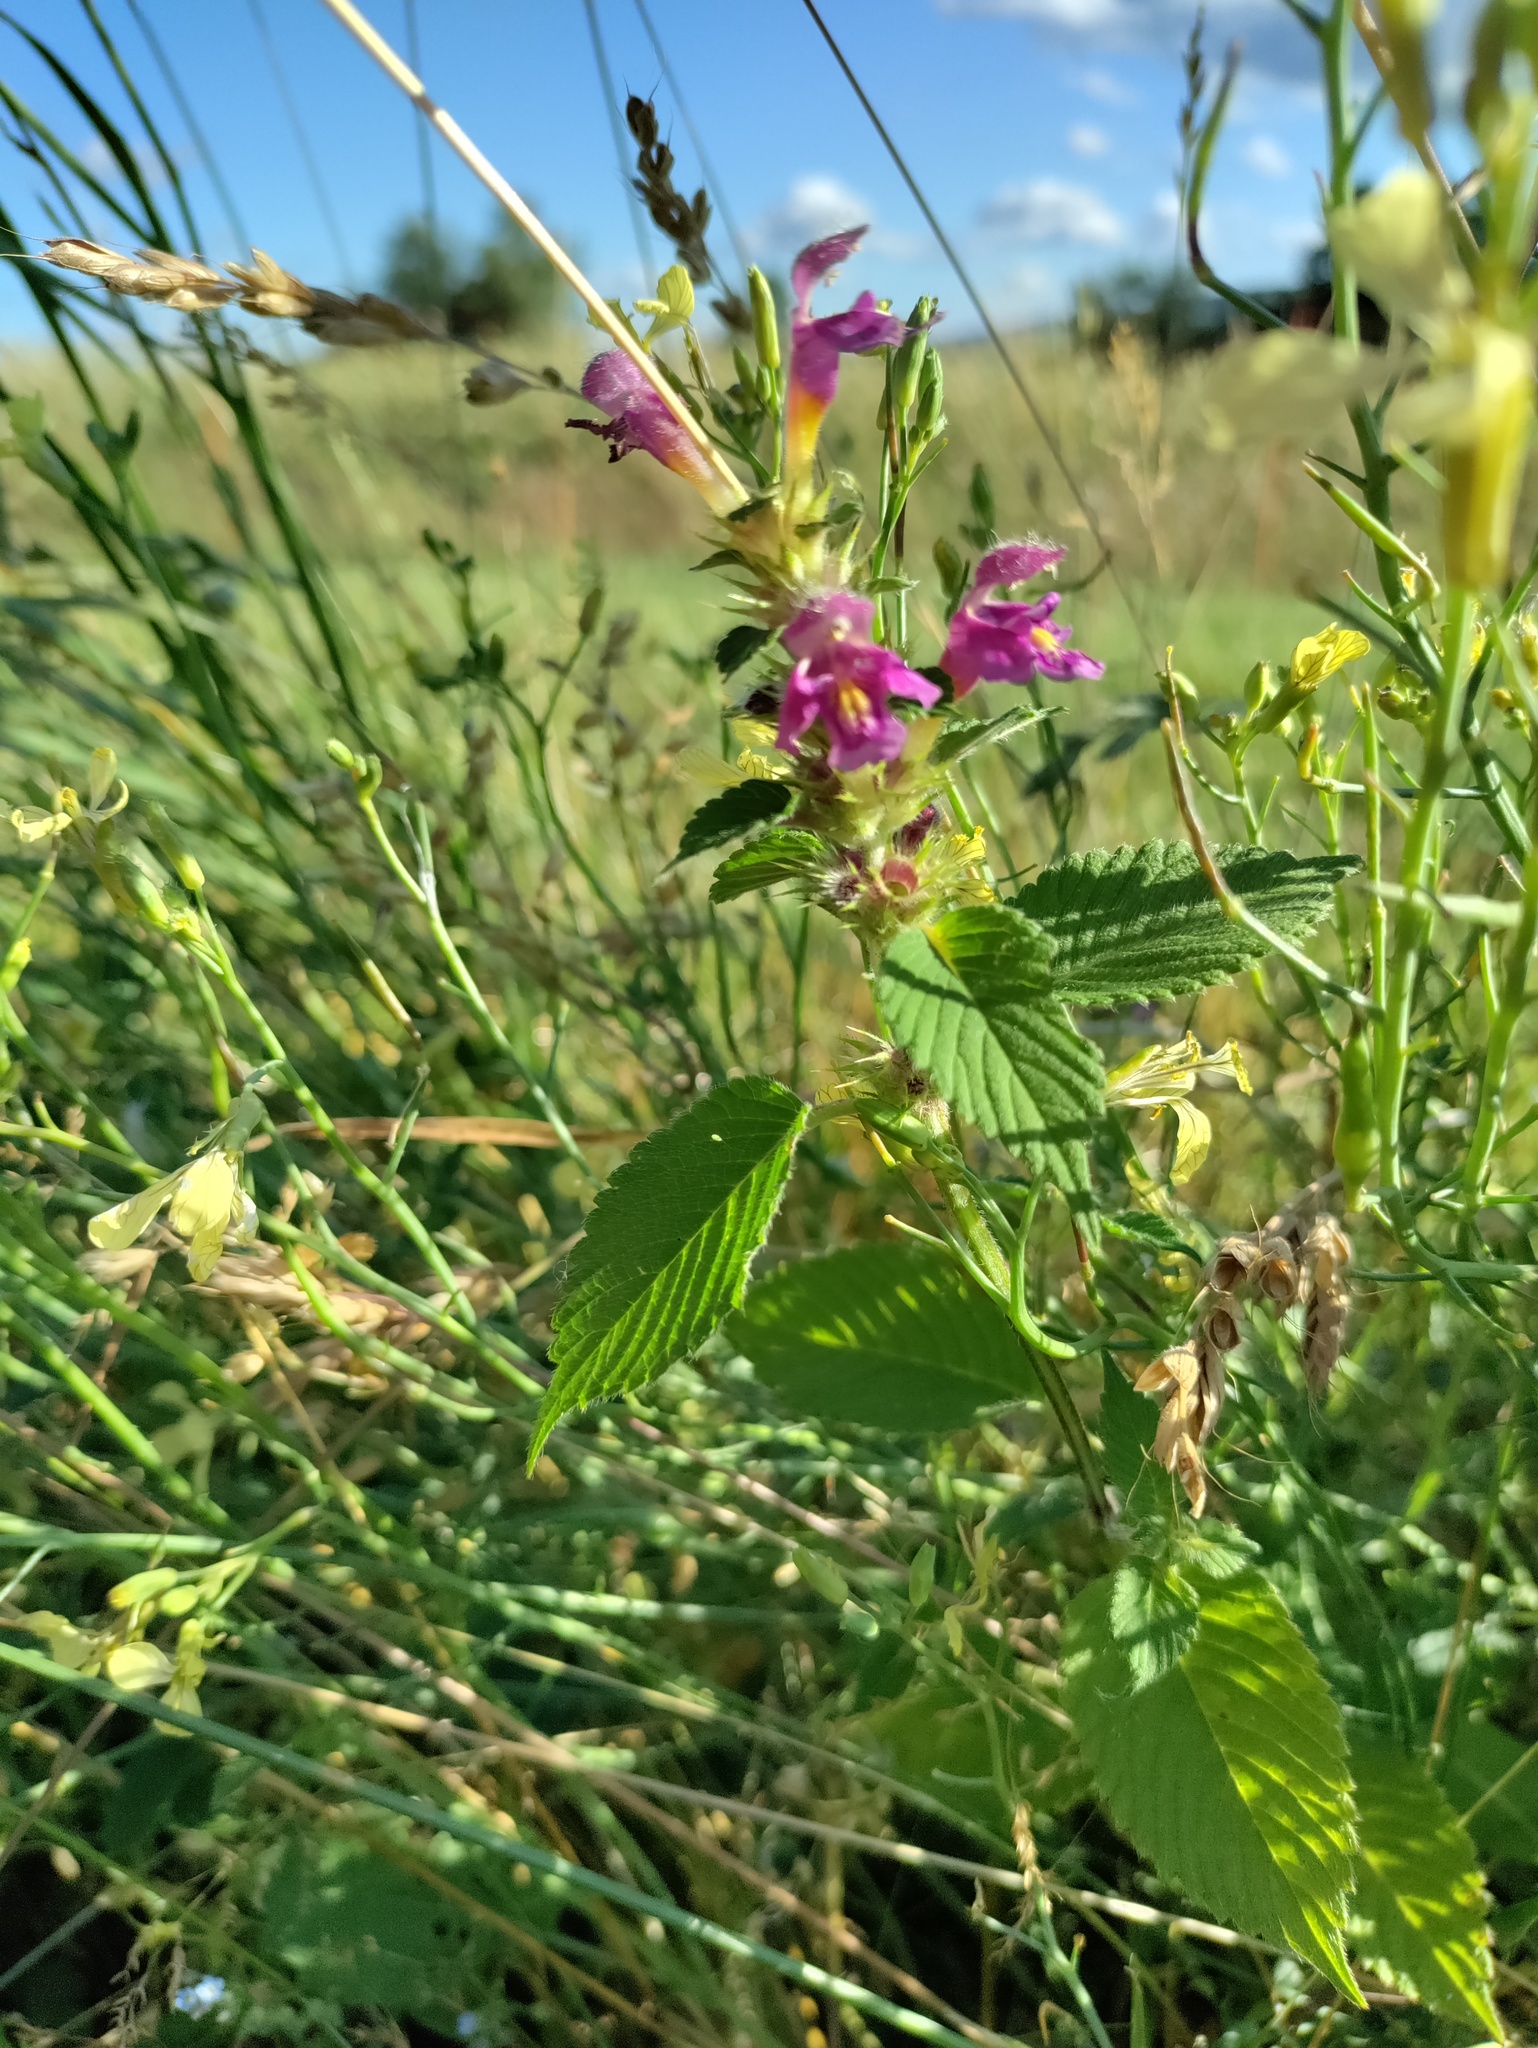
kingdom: Plantae
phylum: Tracheophyta
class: Magnoliopsida
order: Lamiales
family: Lamiaceae
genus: Galeopsis
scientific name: Galeopsis pubescens
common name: Downy hemp-nettle
